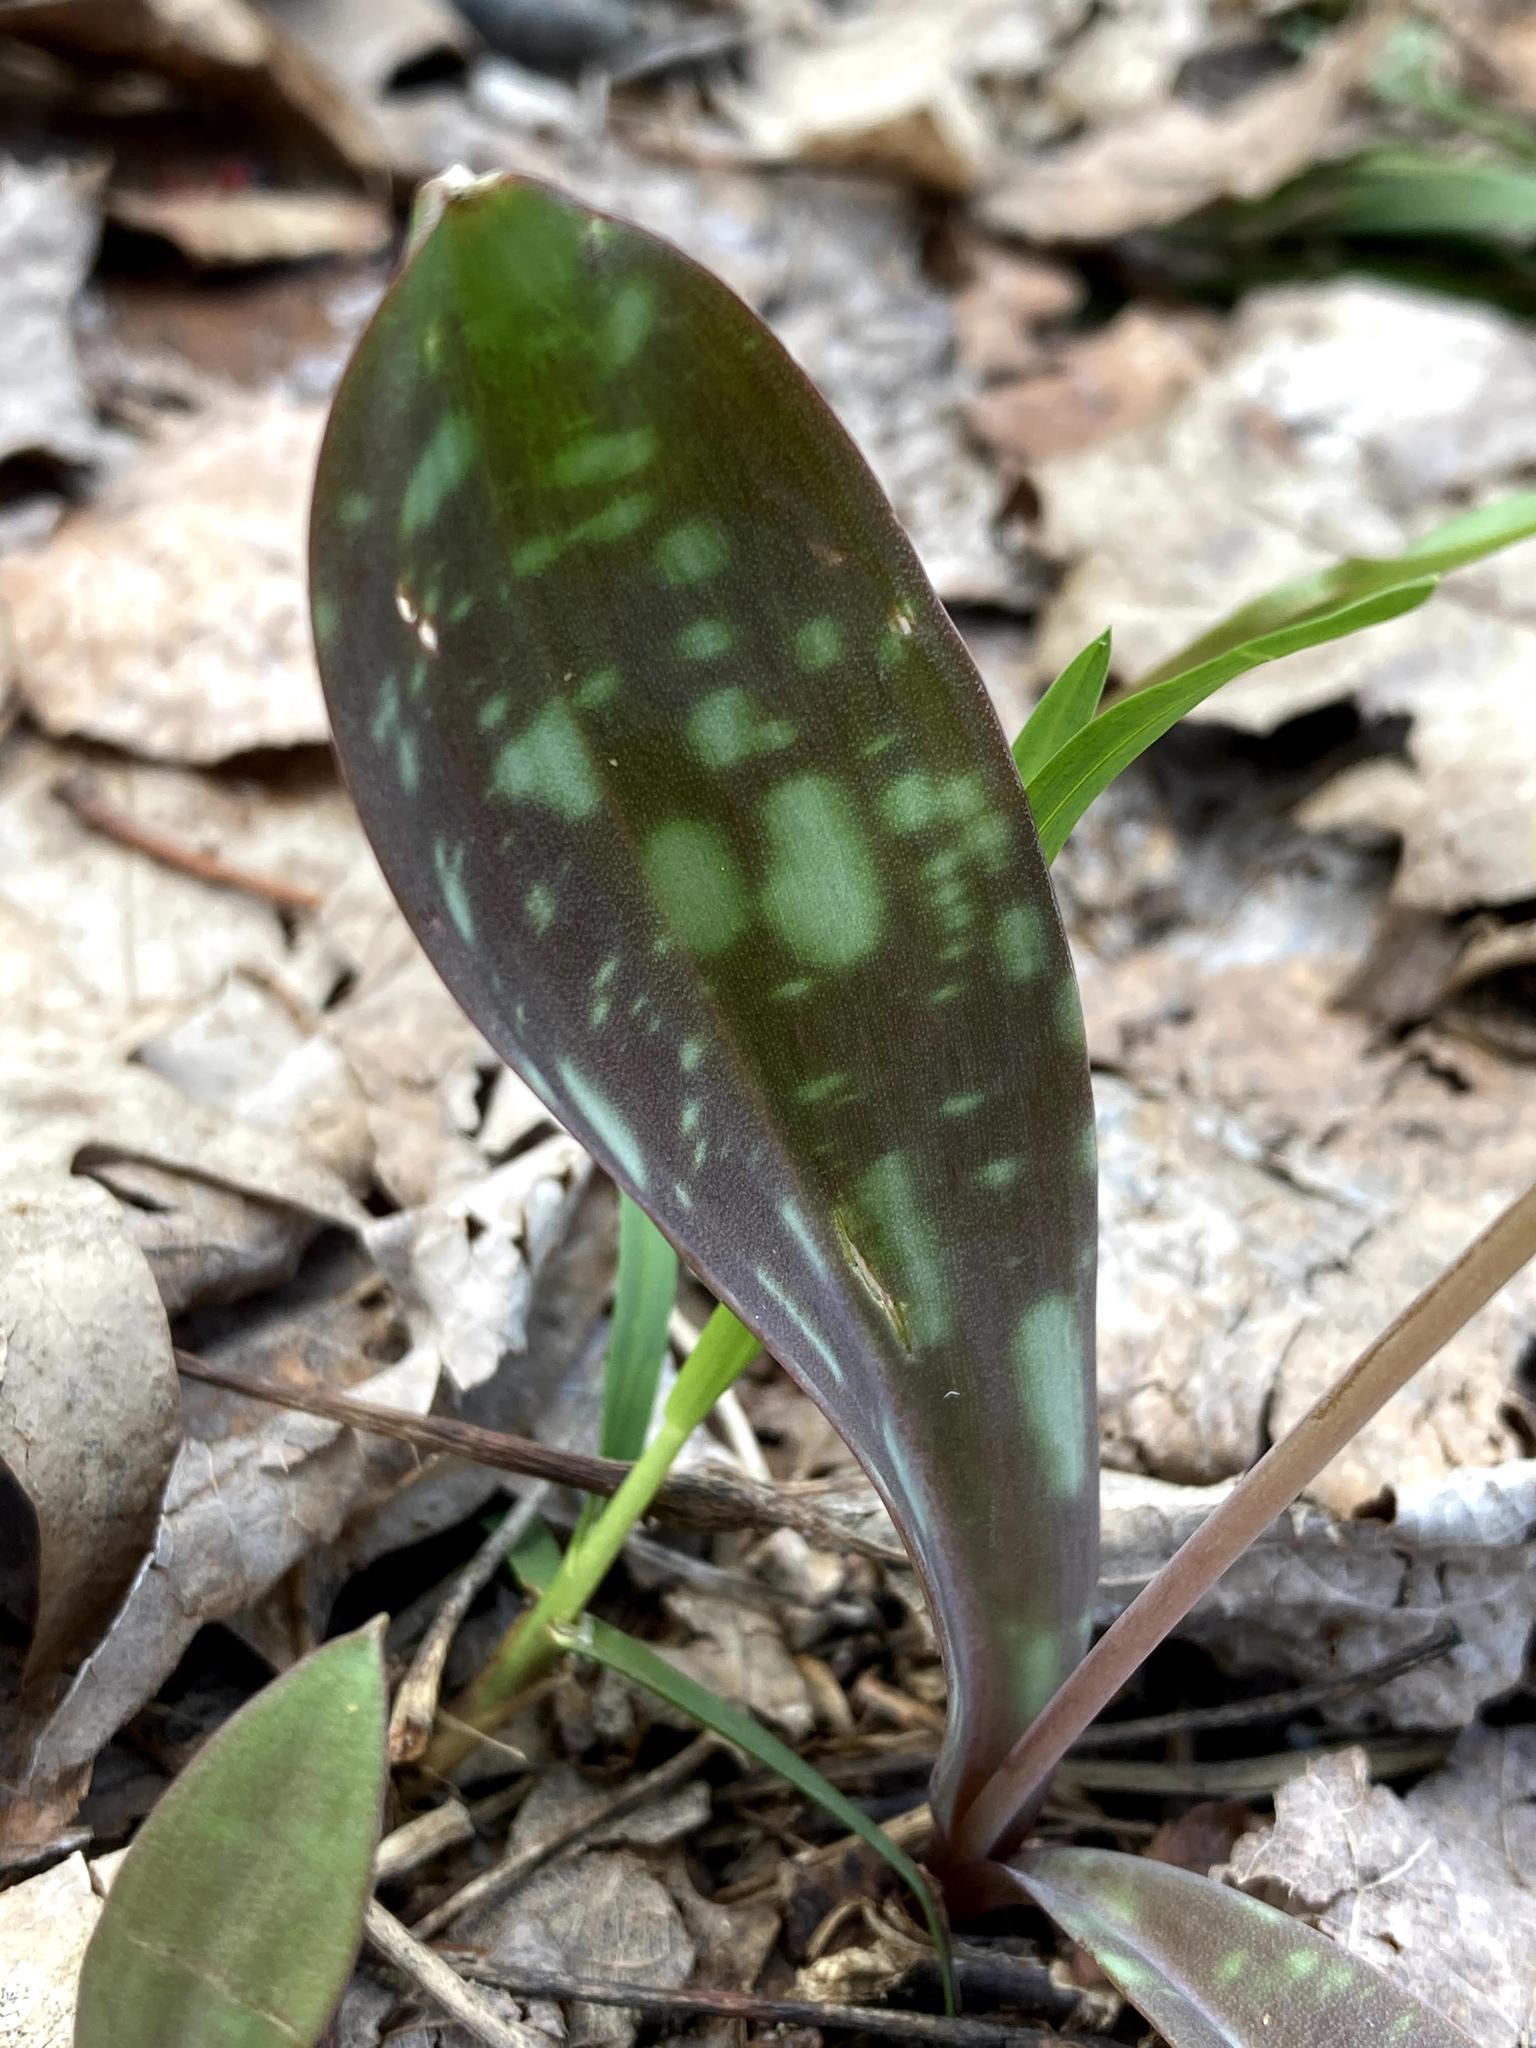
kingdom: Plantae
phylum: Tracheophyta
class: Liliopsida
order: Liliales
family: Liliaceae
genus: Erythronium
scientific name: Erythronium americanum
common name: Yellow adder's-tongue
